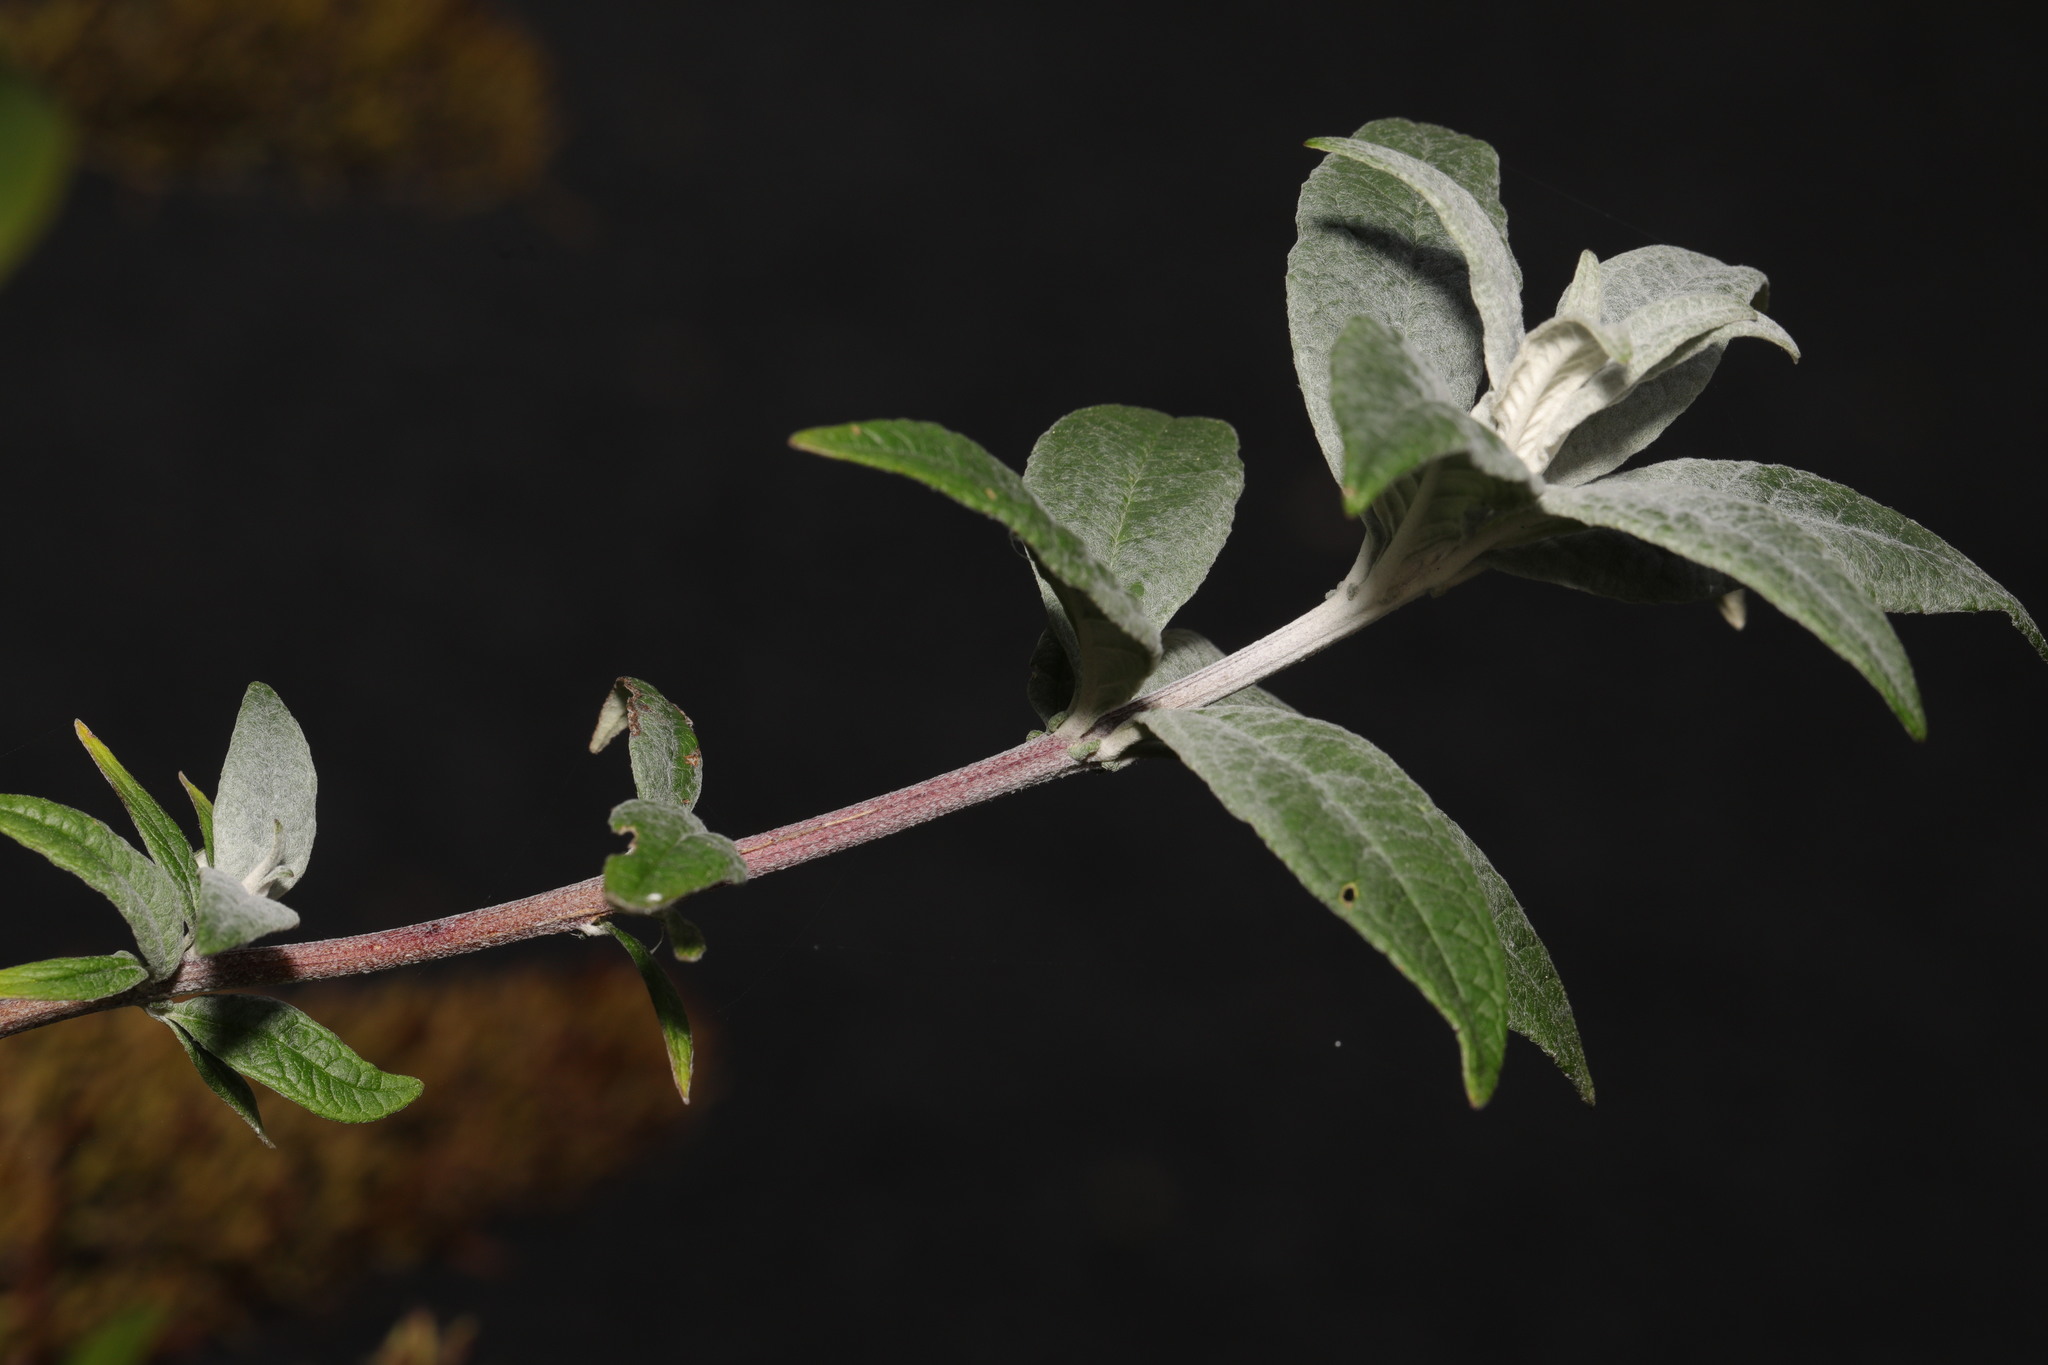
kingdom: Plantae
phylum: Tracheophyta
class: Magnoliopsida
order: Lamiales
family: Scrophulariaceae
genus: Buddleja
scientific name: Buddleja davidii
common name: Butterfly-bush
